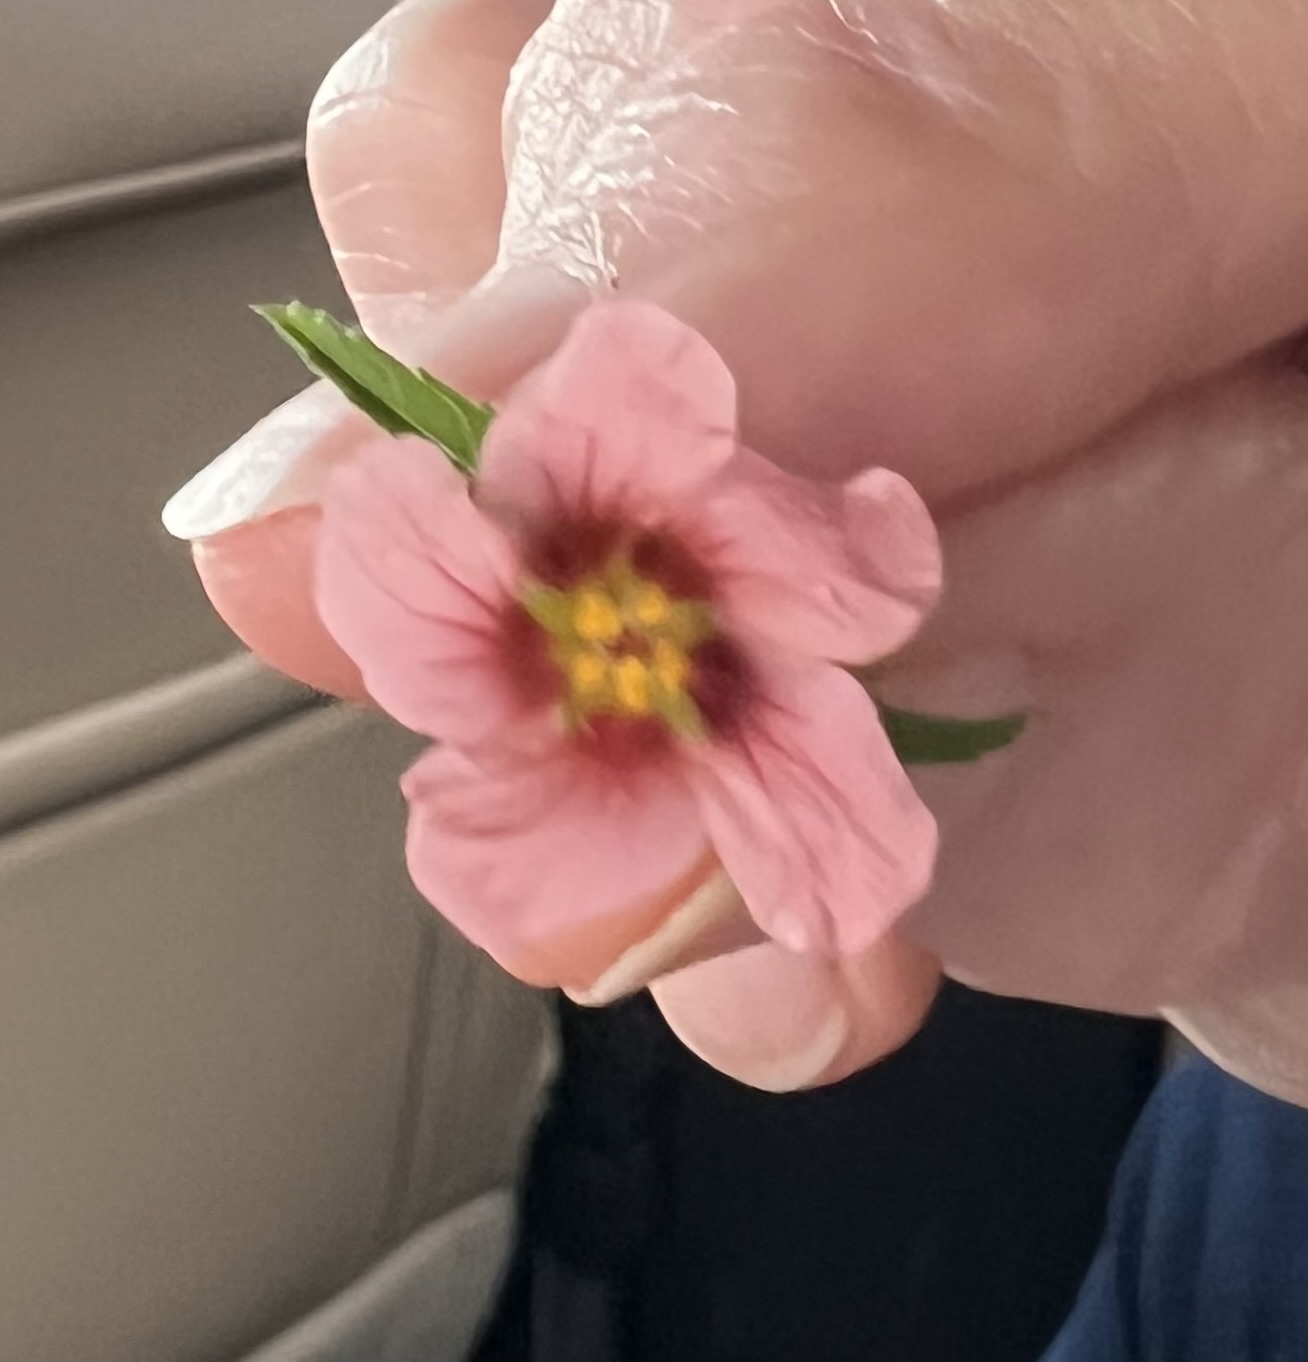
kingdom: Plantae
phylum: Tracheophyta
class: Magnoliopsida
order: Malvales
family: Malvaceae
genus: Sida
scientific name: Sida ciliaris
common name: Bracted fanpetals
